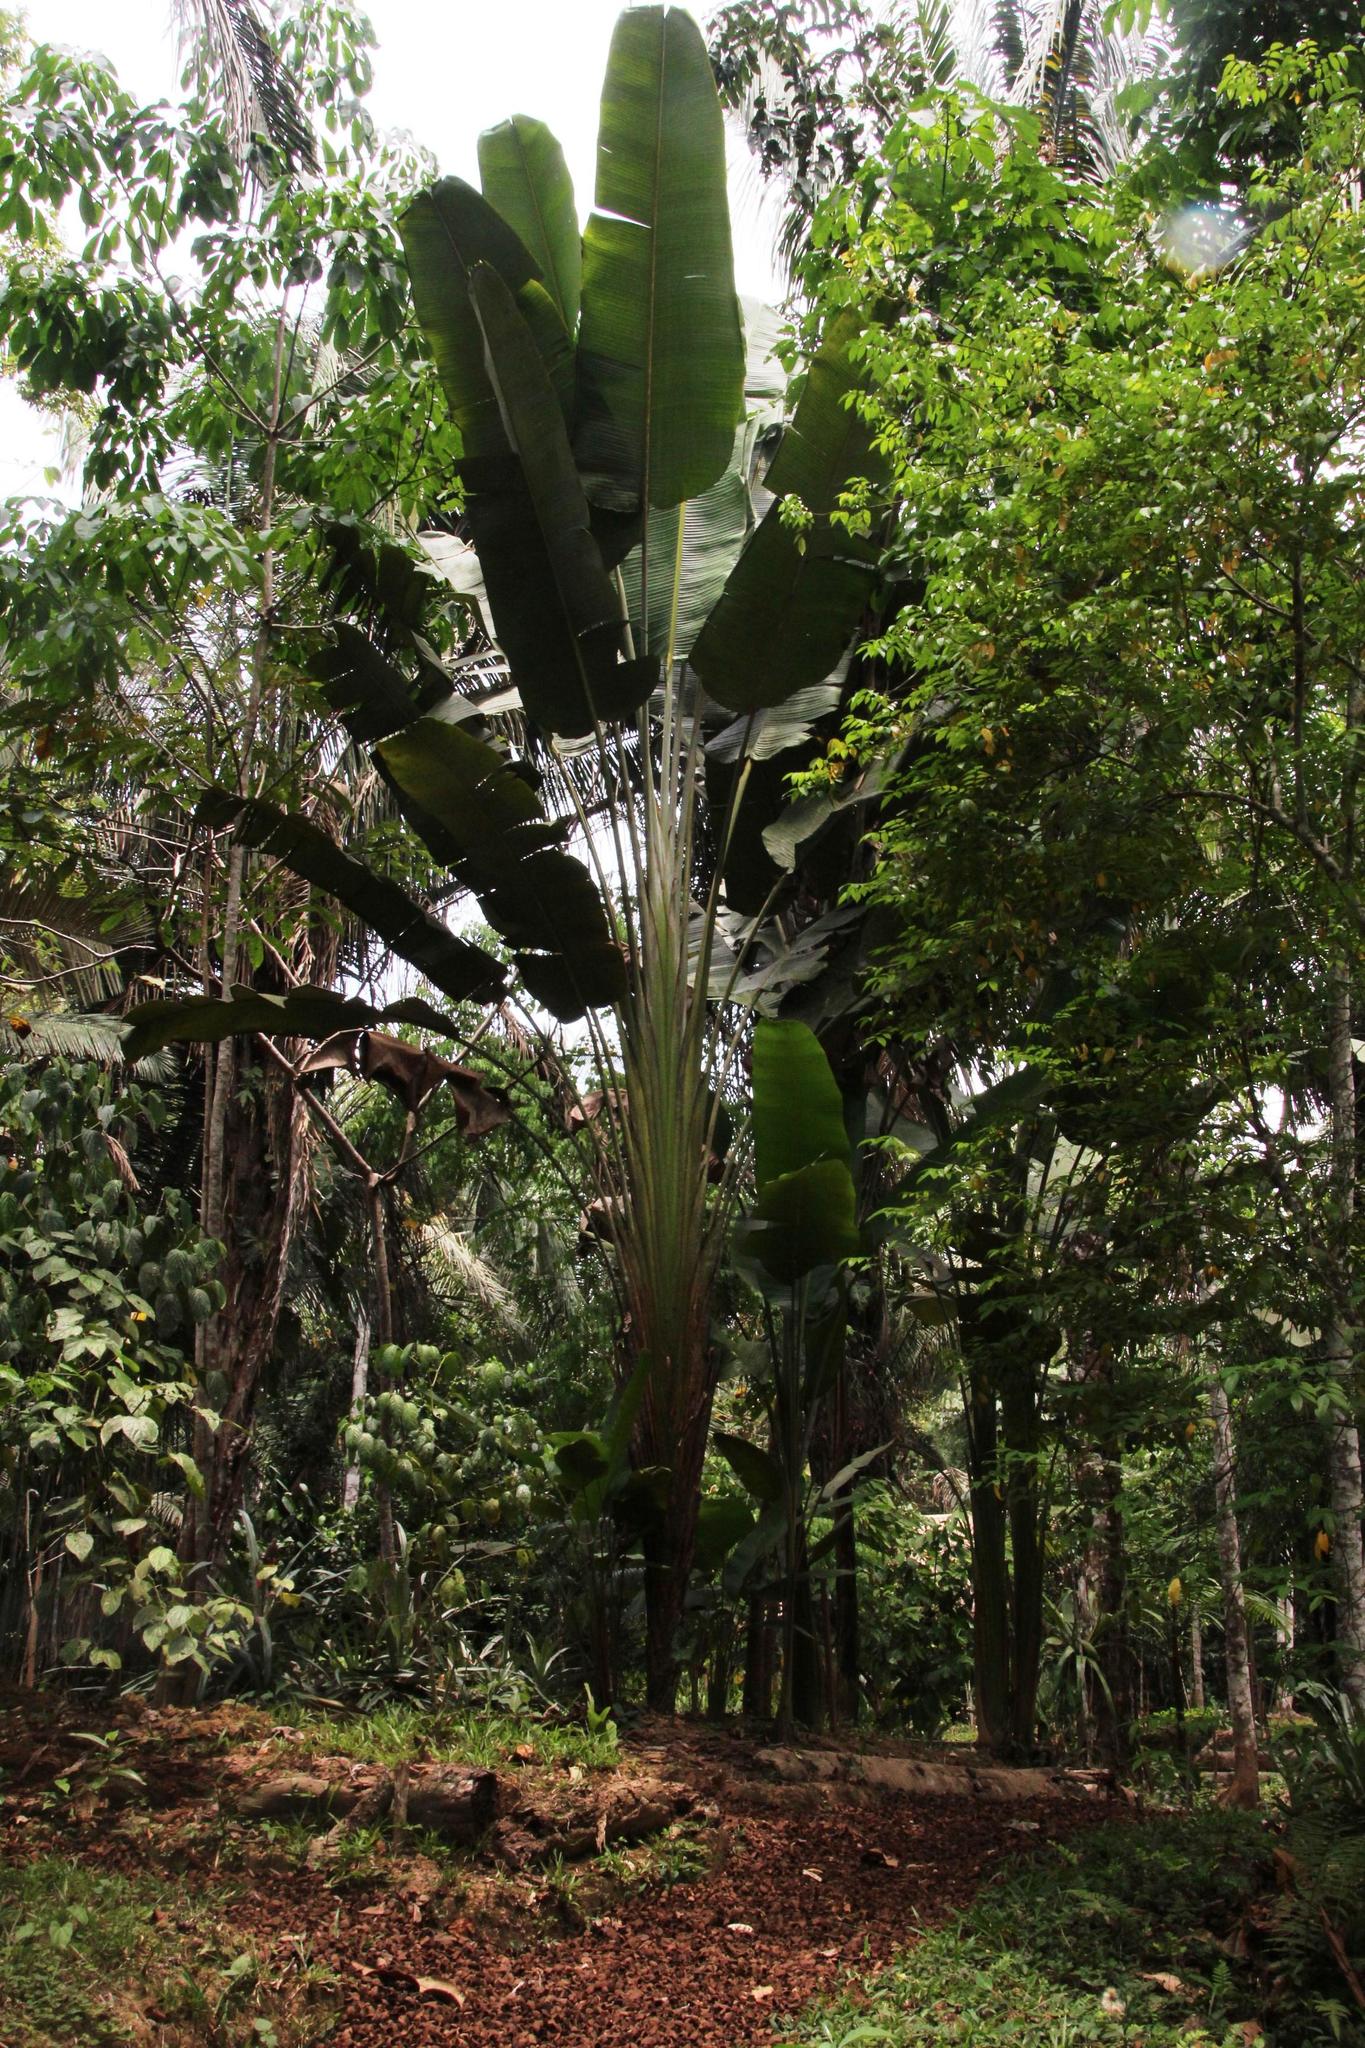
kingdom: Plantae
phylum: Tracheophyta
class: Liliopsida
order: Zingiberales
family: Strelitziaceae
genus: Phenakospermum
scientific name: Phenakospermum guyannense
